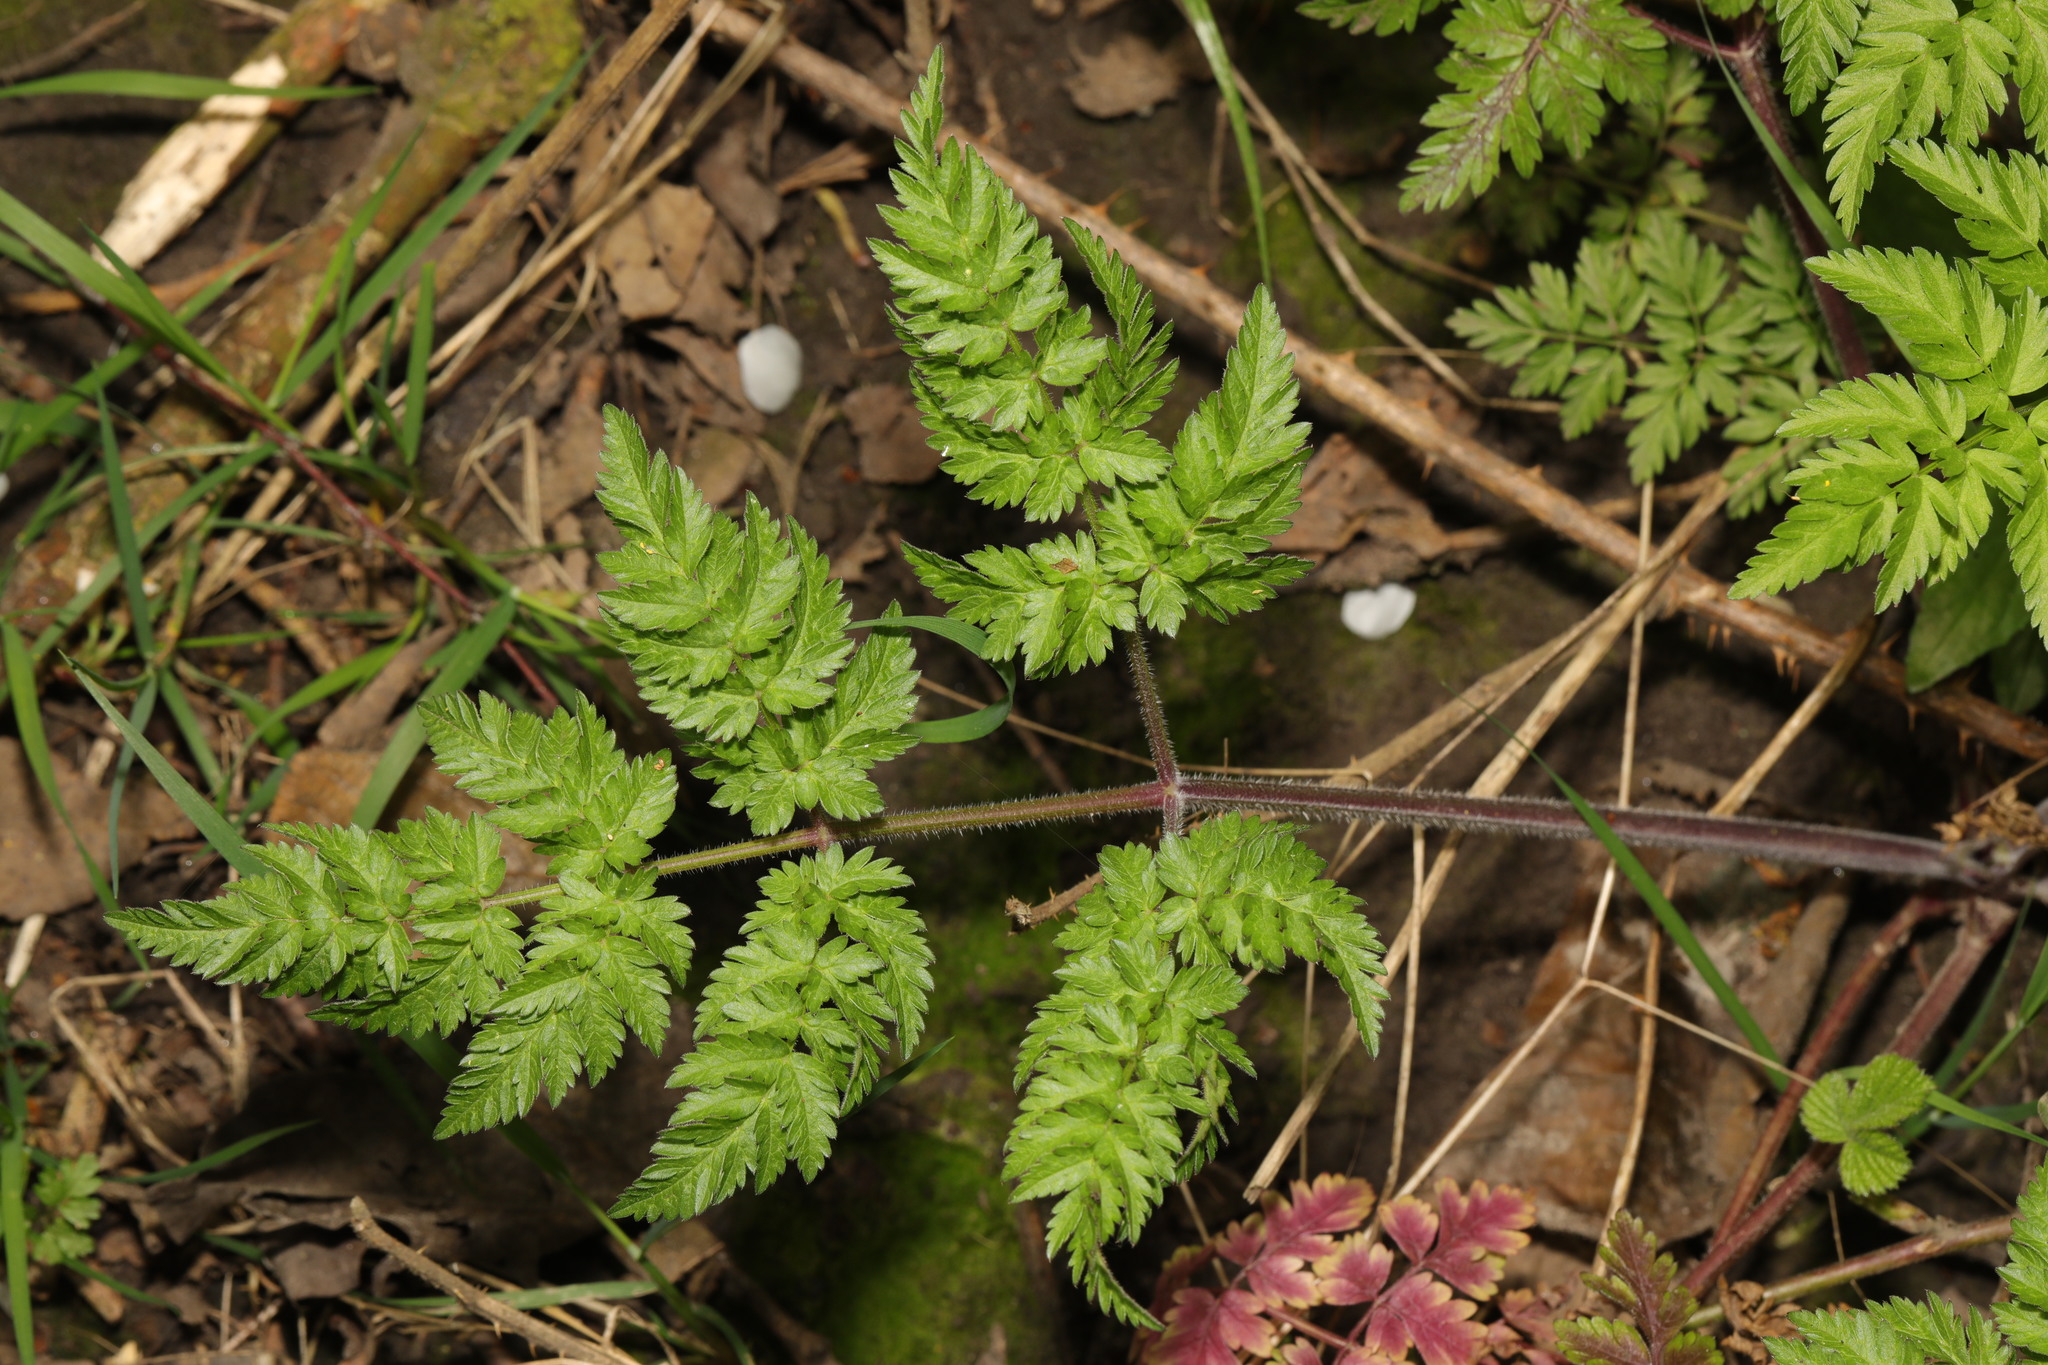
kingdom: Plantae
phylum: Tracheophyta
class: Magnoliopsida
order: Apiales
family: Apiaceae
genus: Anthriscus
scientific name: Anthriscus sylvestris
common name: Cow parsley
